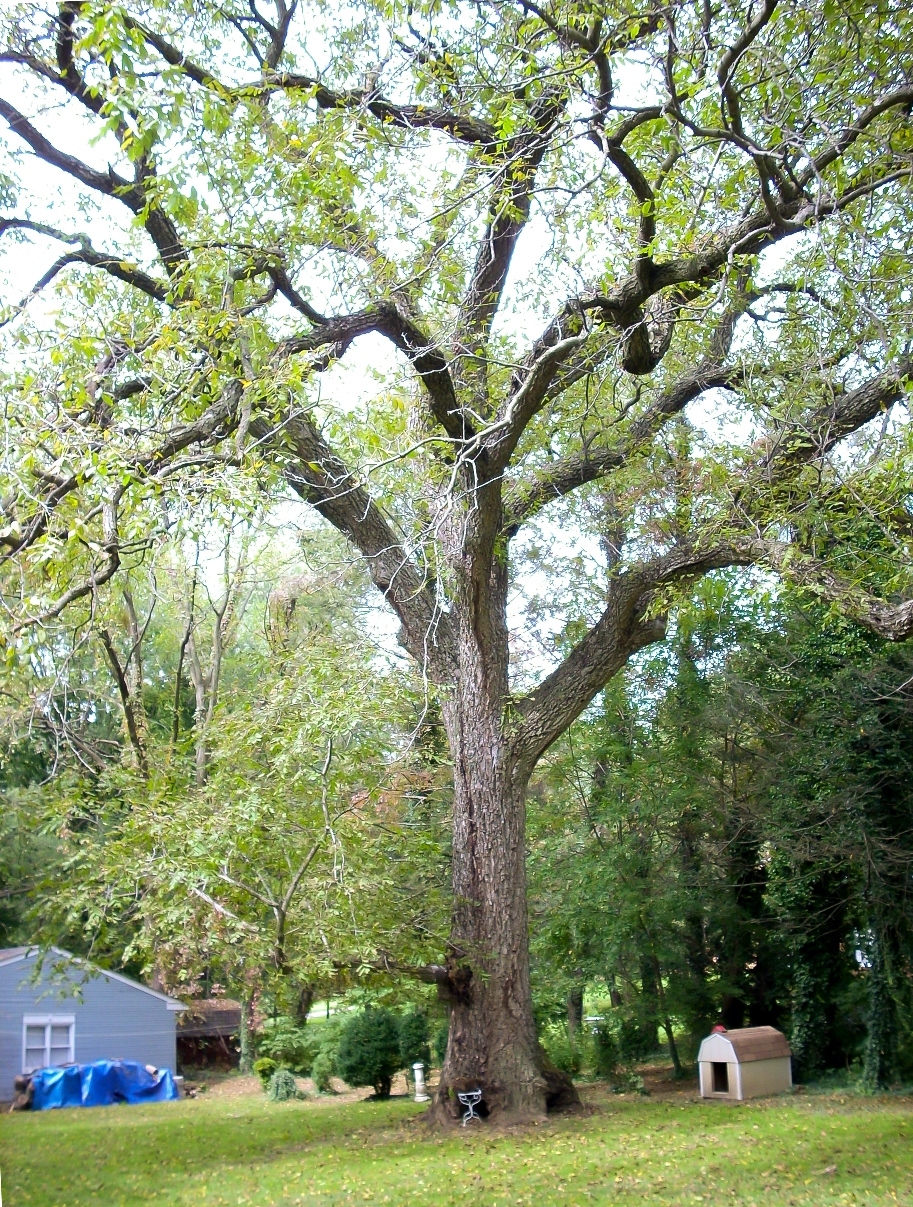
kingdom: Plantae
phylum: Tracheophyta
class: Magnoliopsida
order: Fagales
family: Juglandaceae
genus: Juglans
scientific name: Juglans cinerea
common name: Butternut
